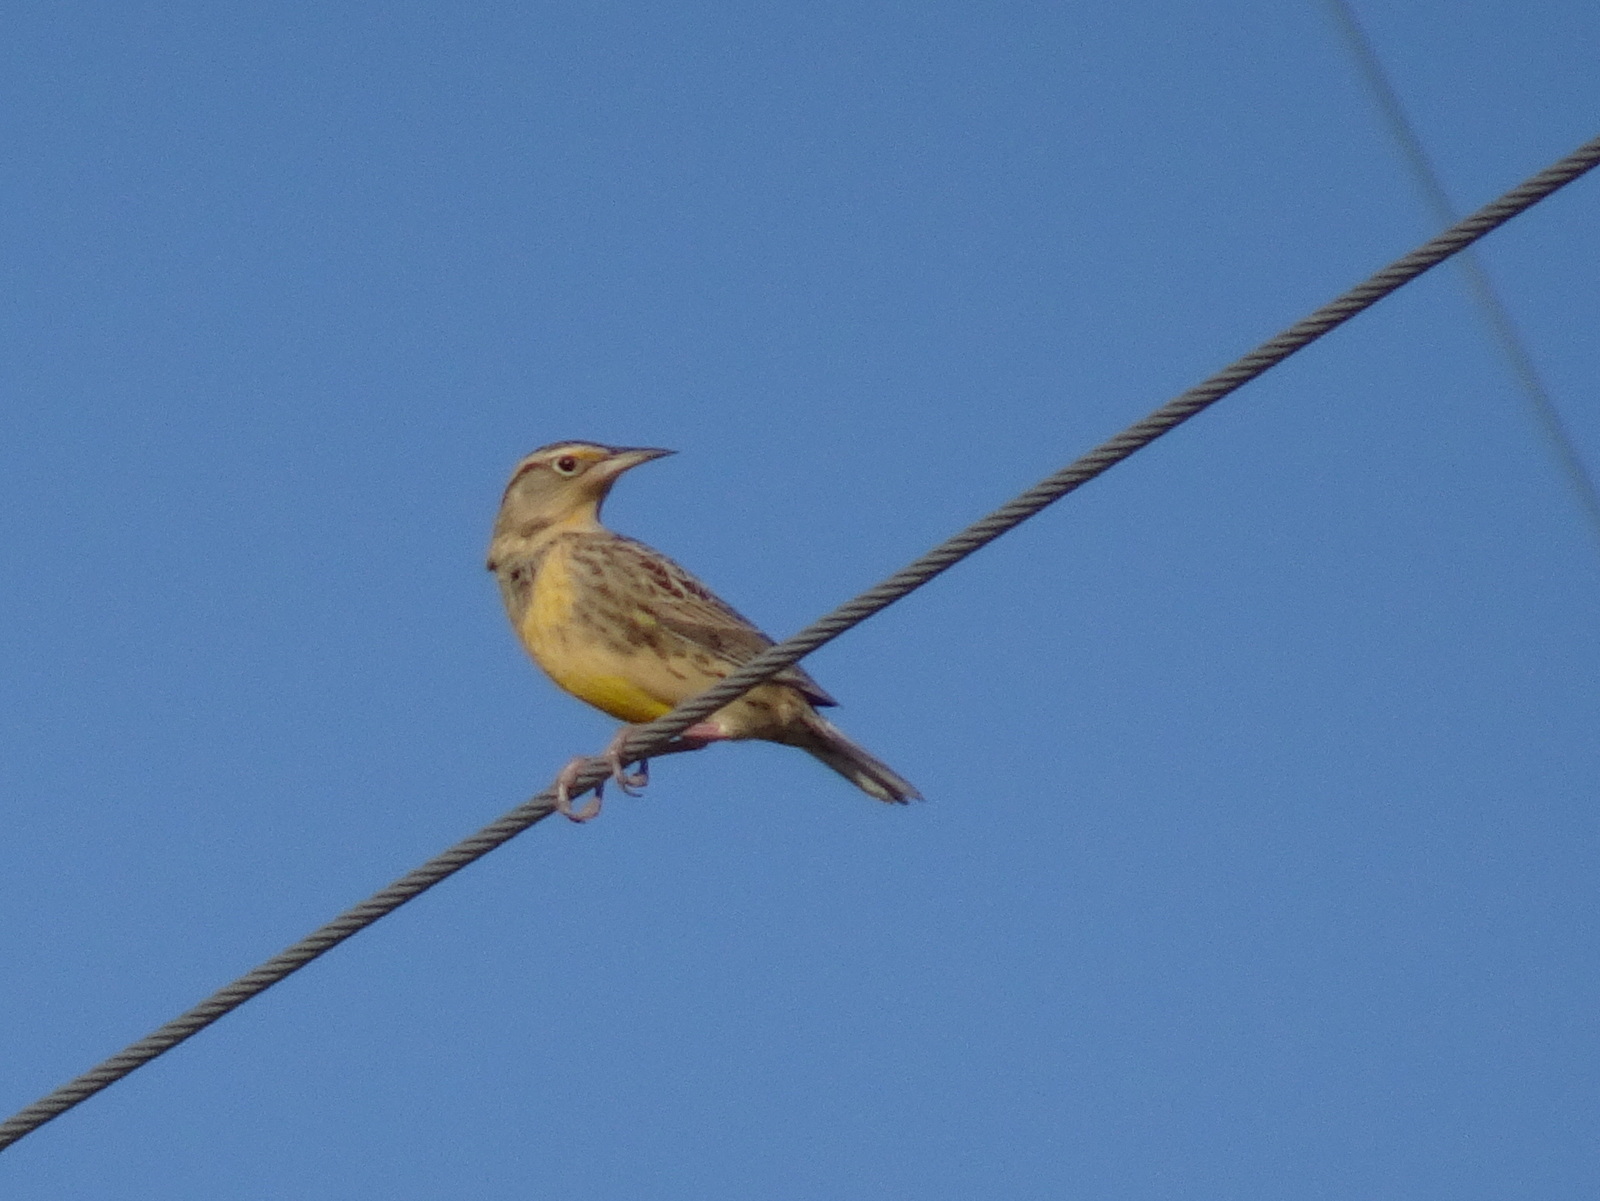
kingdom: Animalia
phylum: Chordata
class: Aves
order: Passeriformes
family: Icteridae
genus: Sturnella
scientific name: Sturnella neglecta
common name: Western meadowlark
